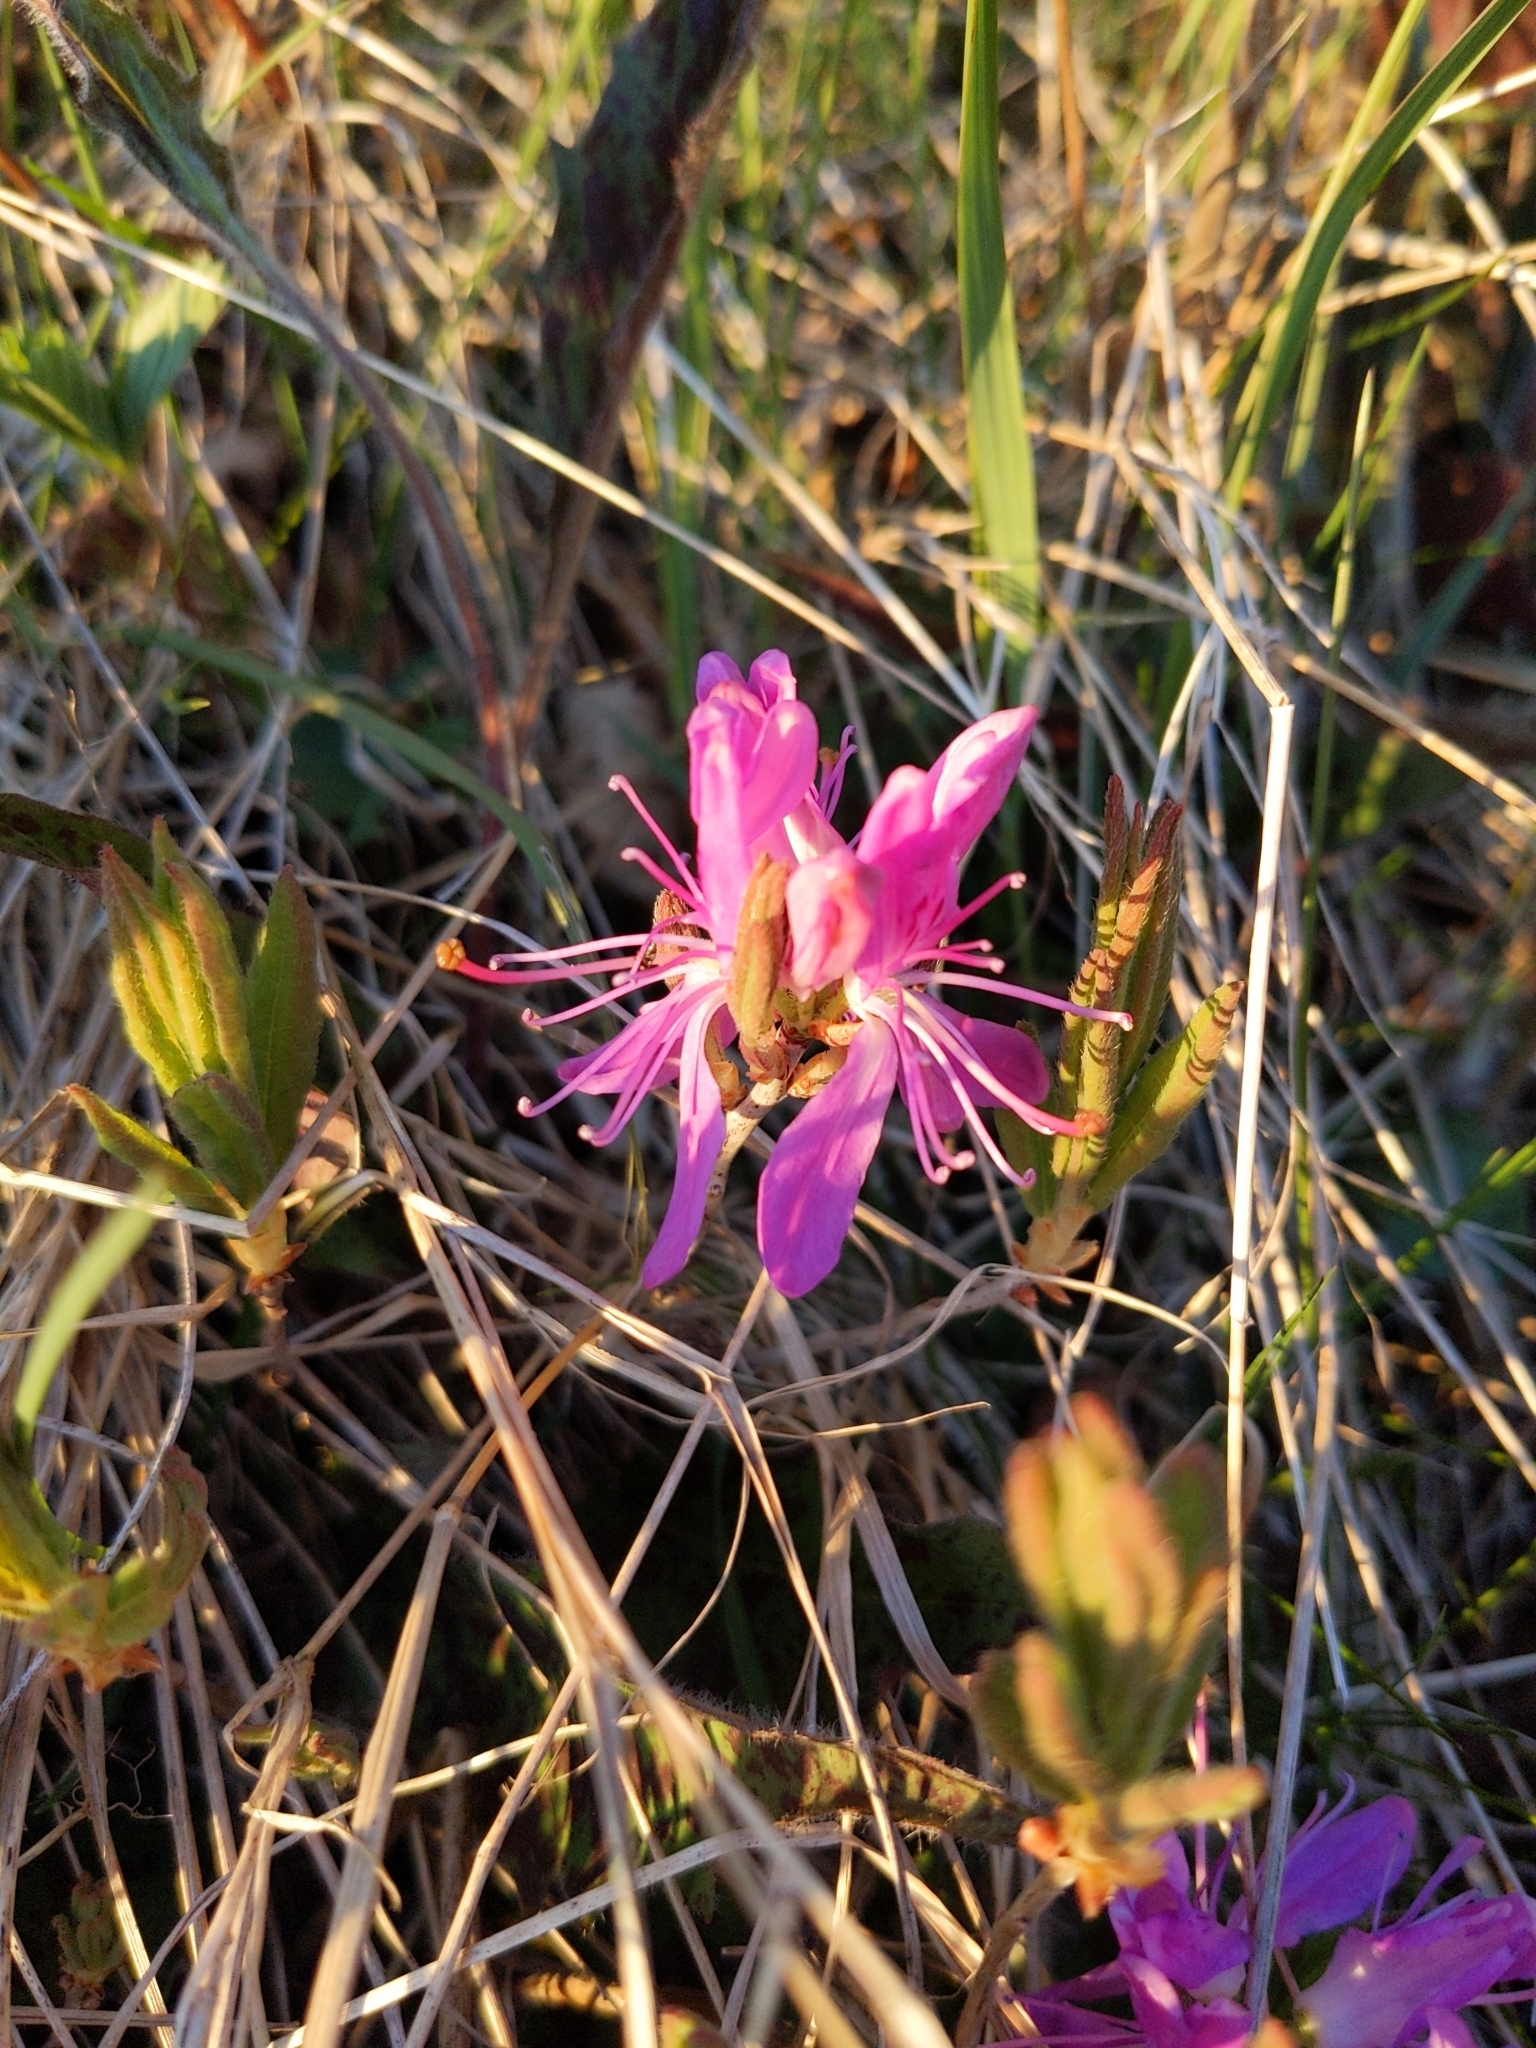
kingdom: Plantae
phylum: Tracheophyta
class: Magnoliopsida
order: Ericales
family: Ericaceae
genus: Rhododendron
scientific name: Rhododendron canadense
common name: Rhodora
